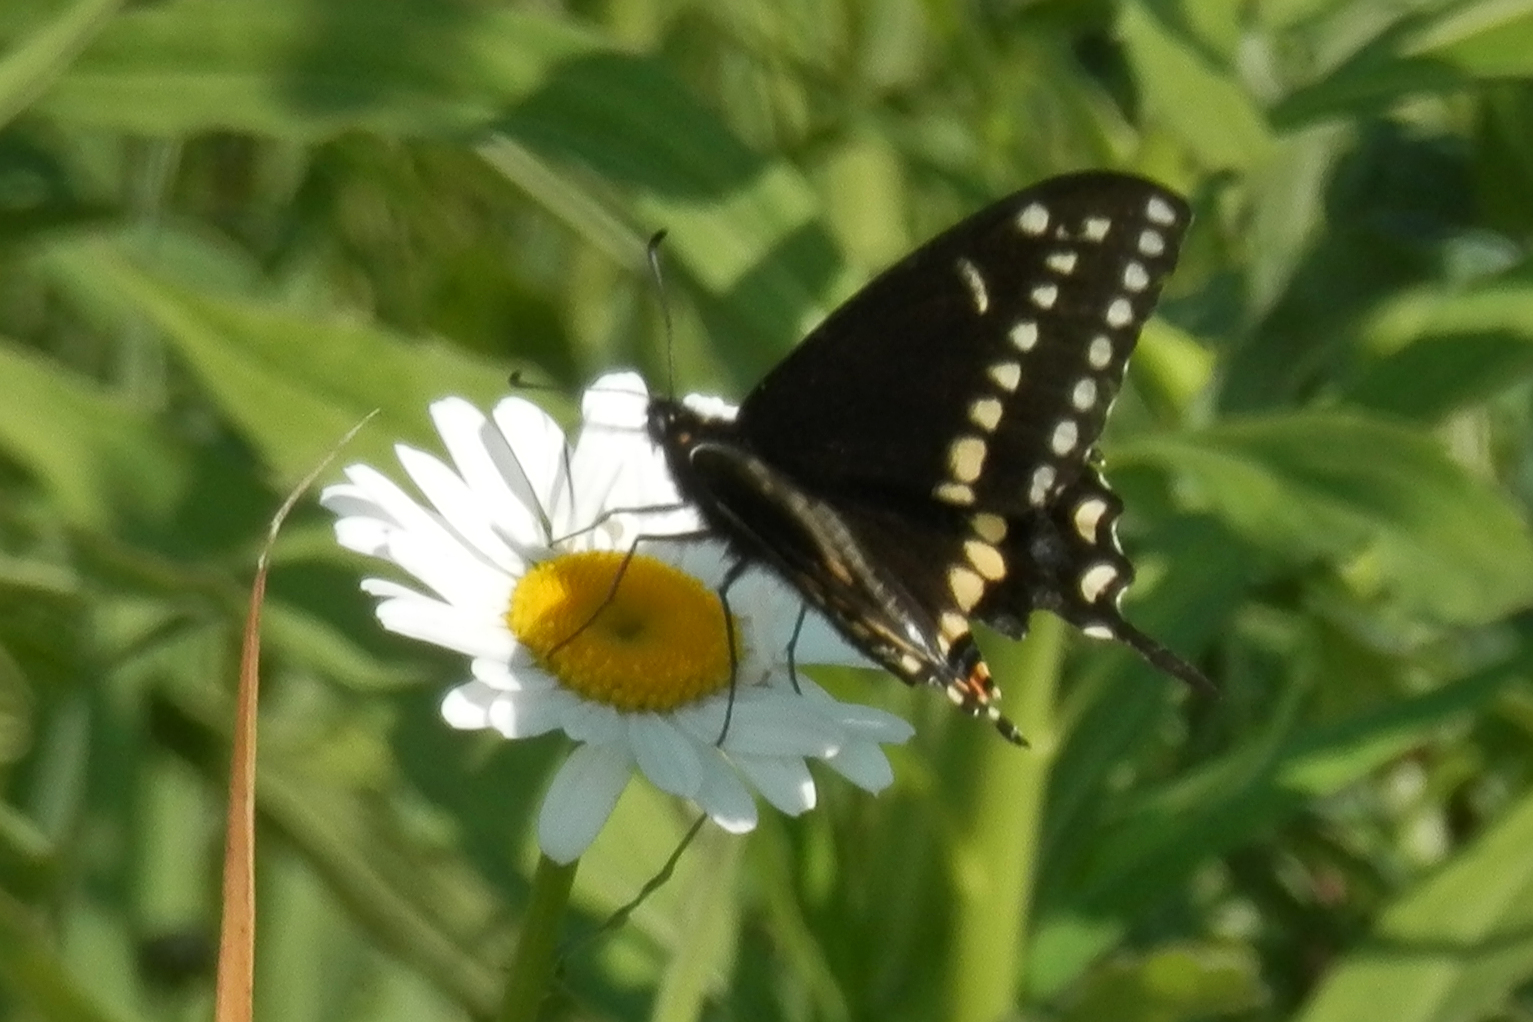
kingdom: Animalia
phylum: Arthropoda
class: Insecta
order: Lepidoptera
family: Papilionidae
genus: Papilio
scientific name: Papilio polyxenes
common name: Black swallowtail
